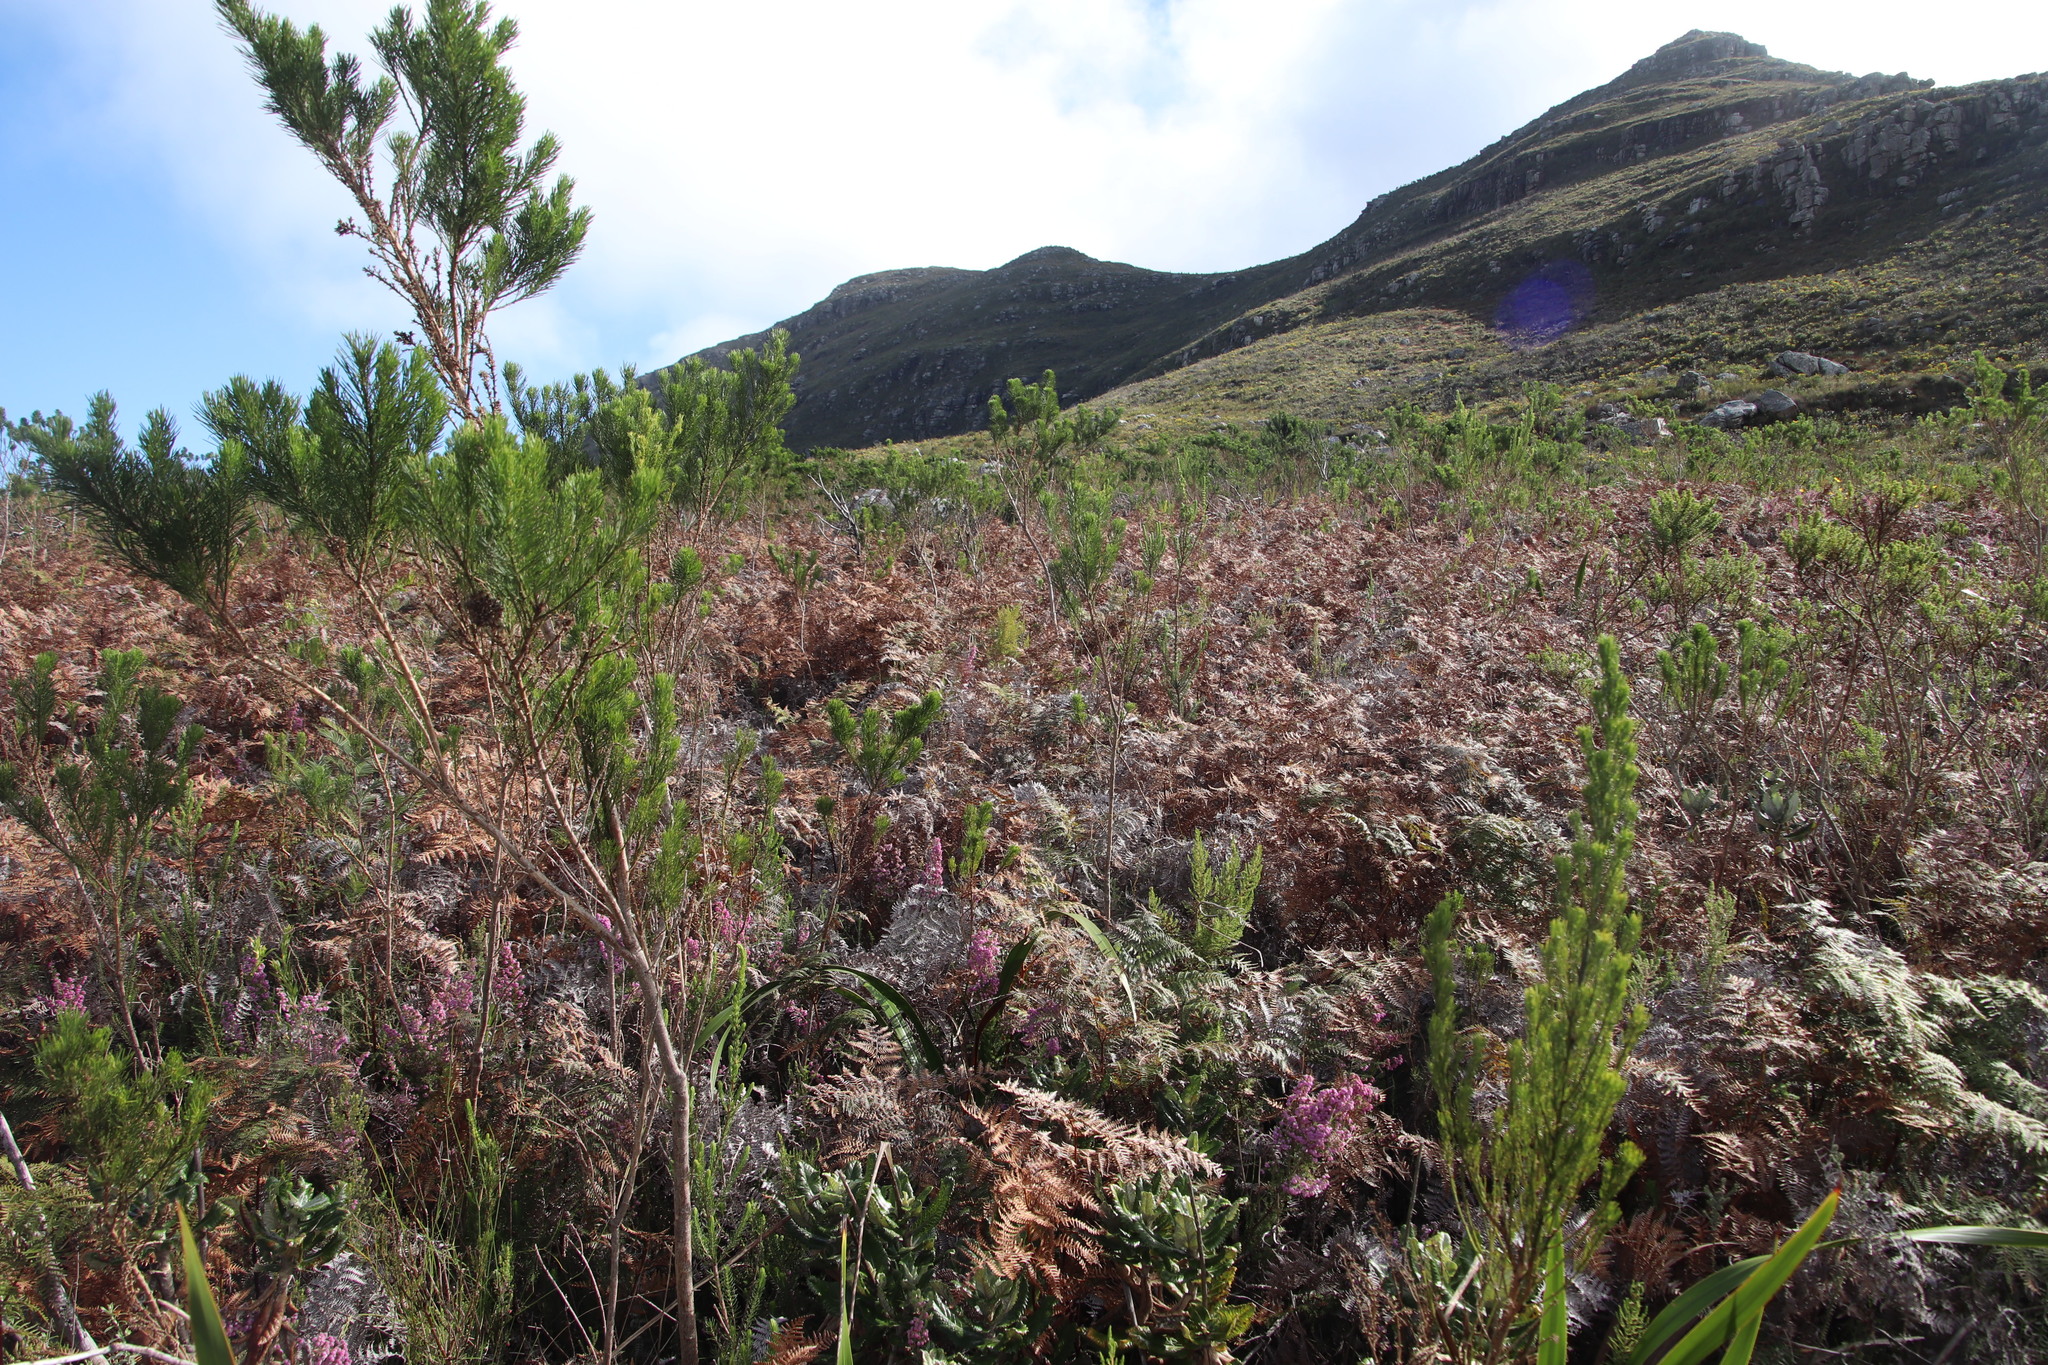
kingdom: Plantae
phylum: Tracheophyta
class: Polypodiopsida
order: Polypodiales
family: Dennstaedtiaceae
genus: Pteridium
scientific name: Pteridium aquilinum
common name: Bracken
